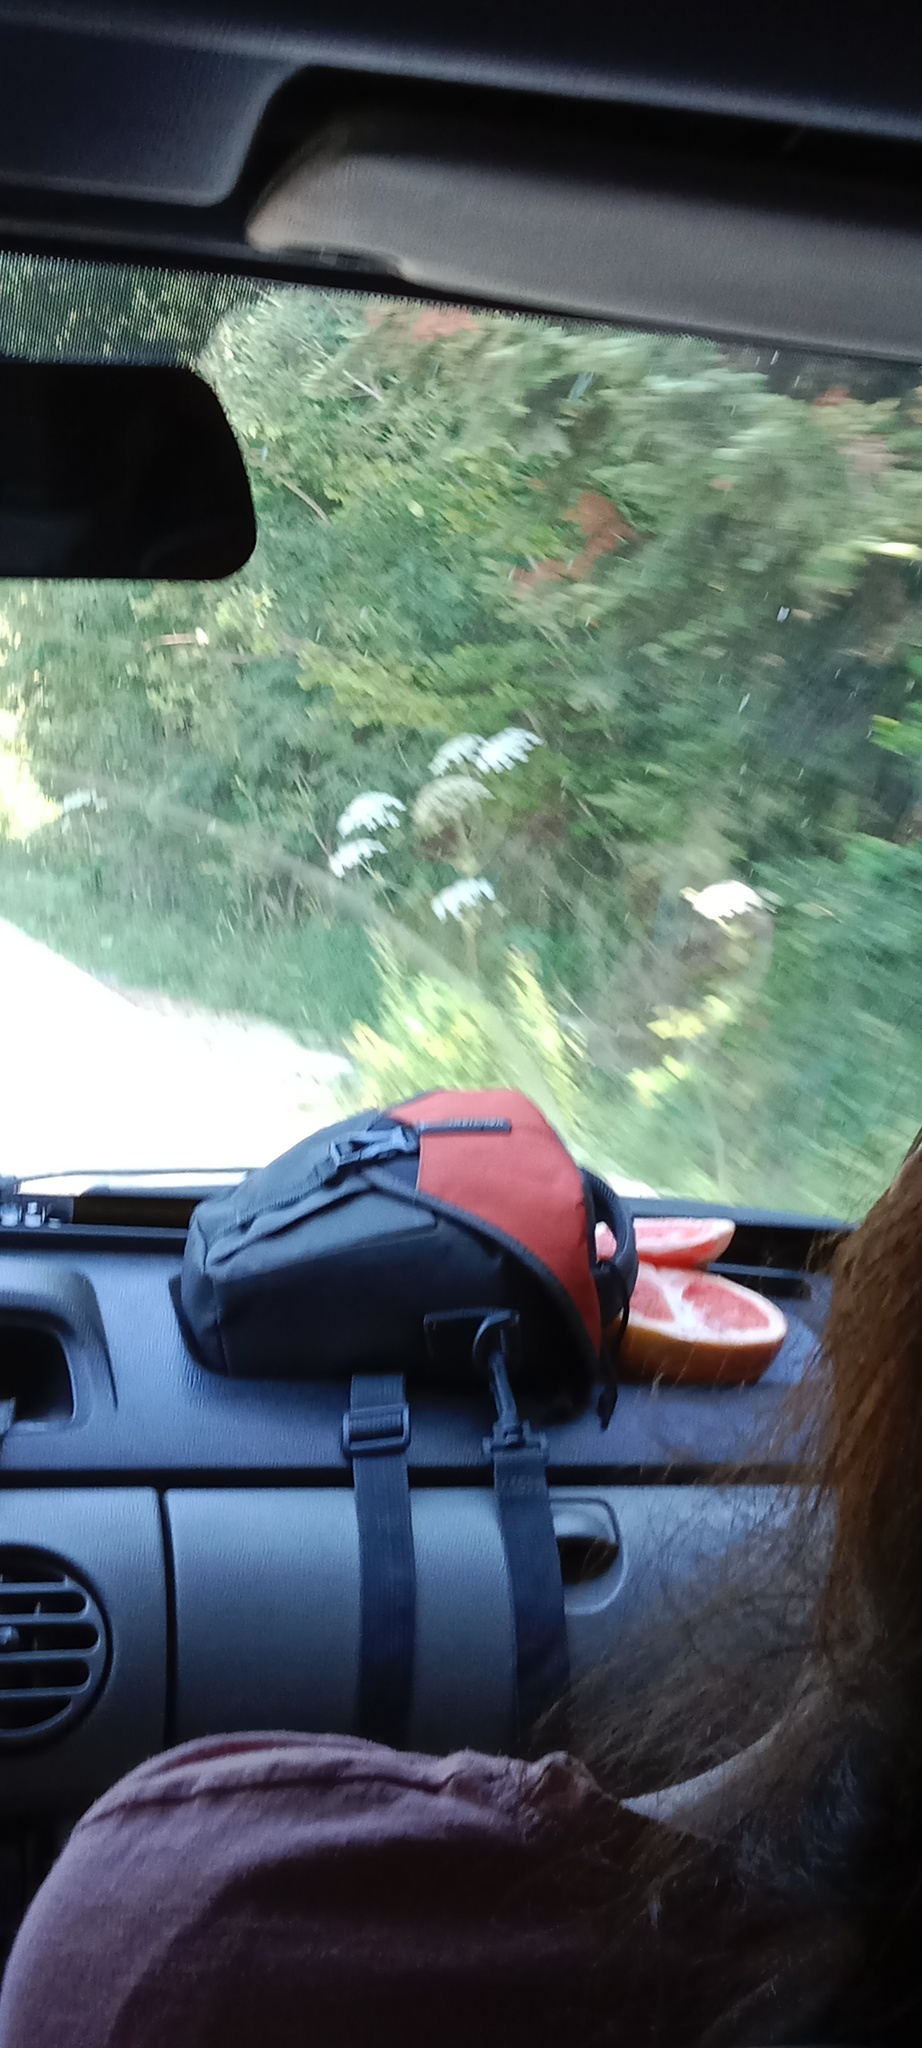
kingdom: Plantae
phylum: Tracheophyta
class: Magnoliopsida
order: Apiales
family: Apiaceae
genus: Heracleum
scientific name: Heracleum sosnowskyi
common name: Sosnowsky's hogweed
